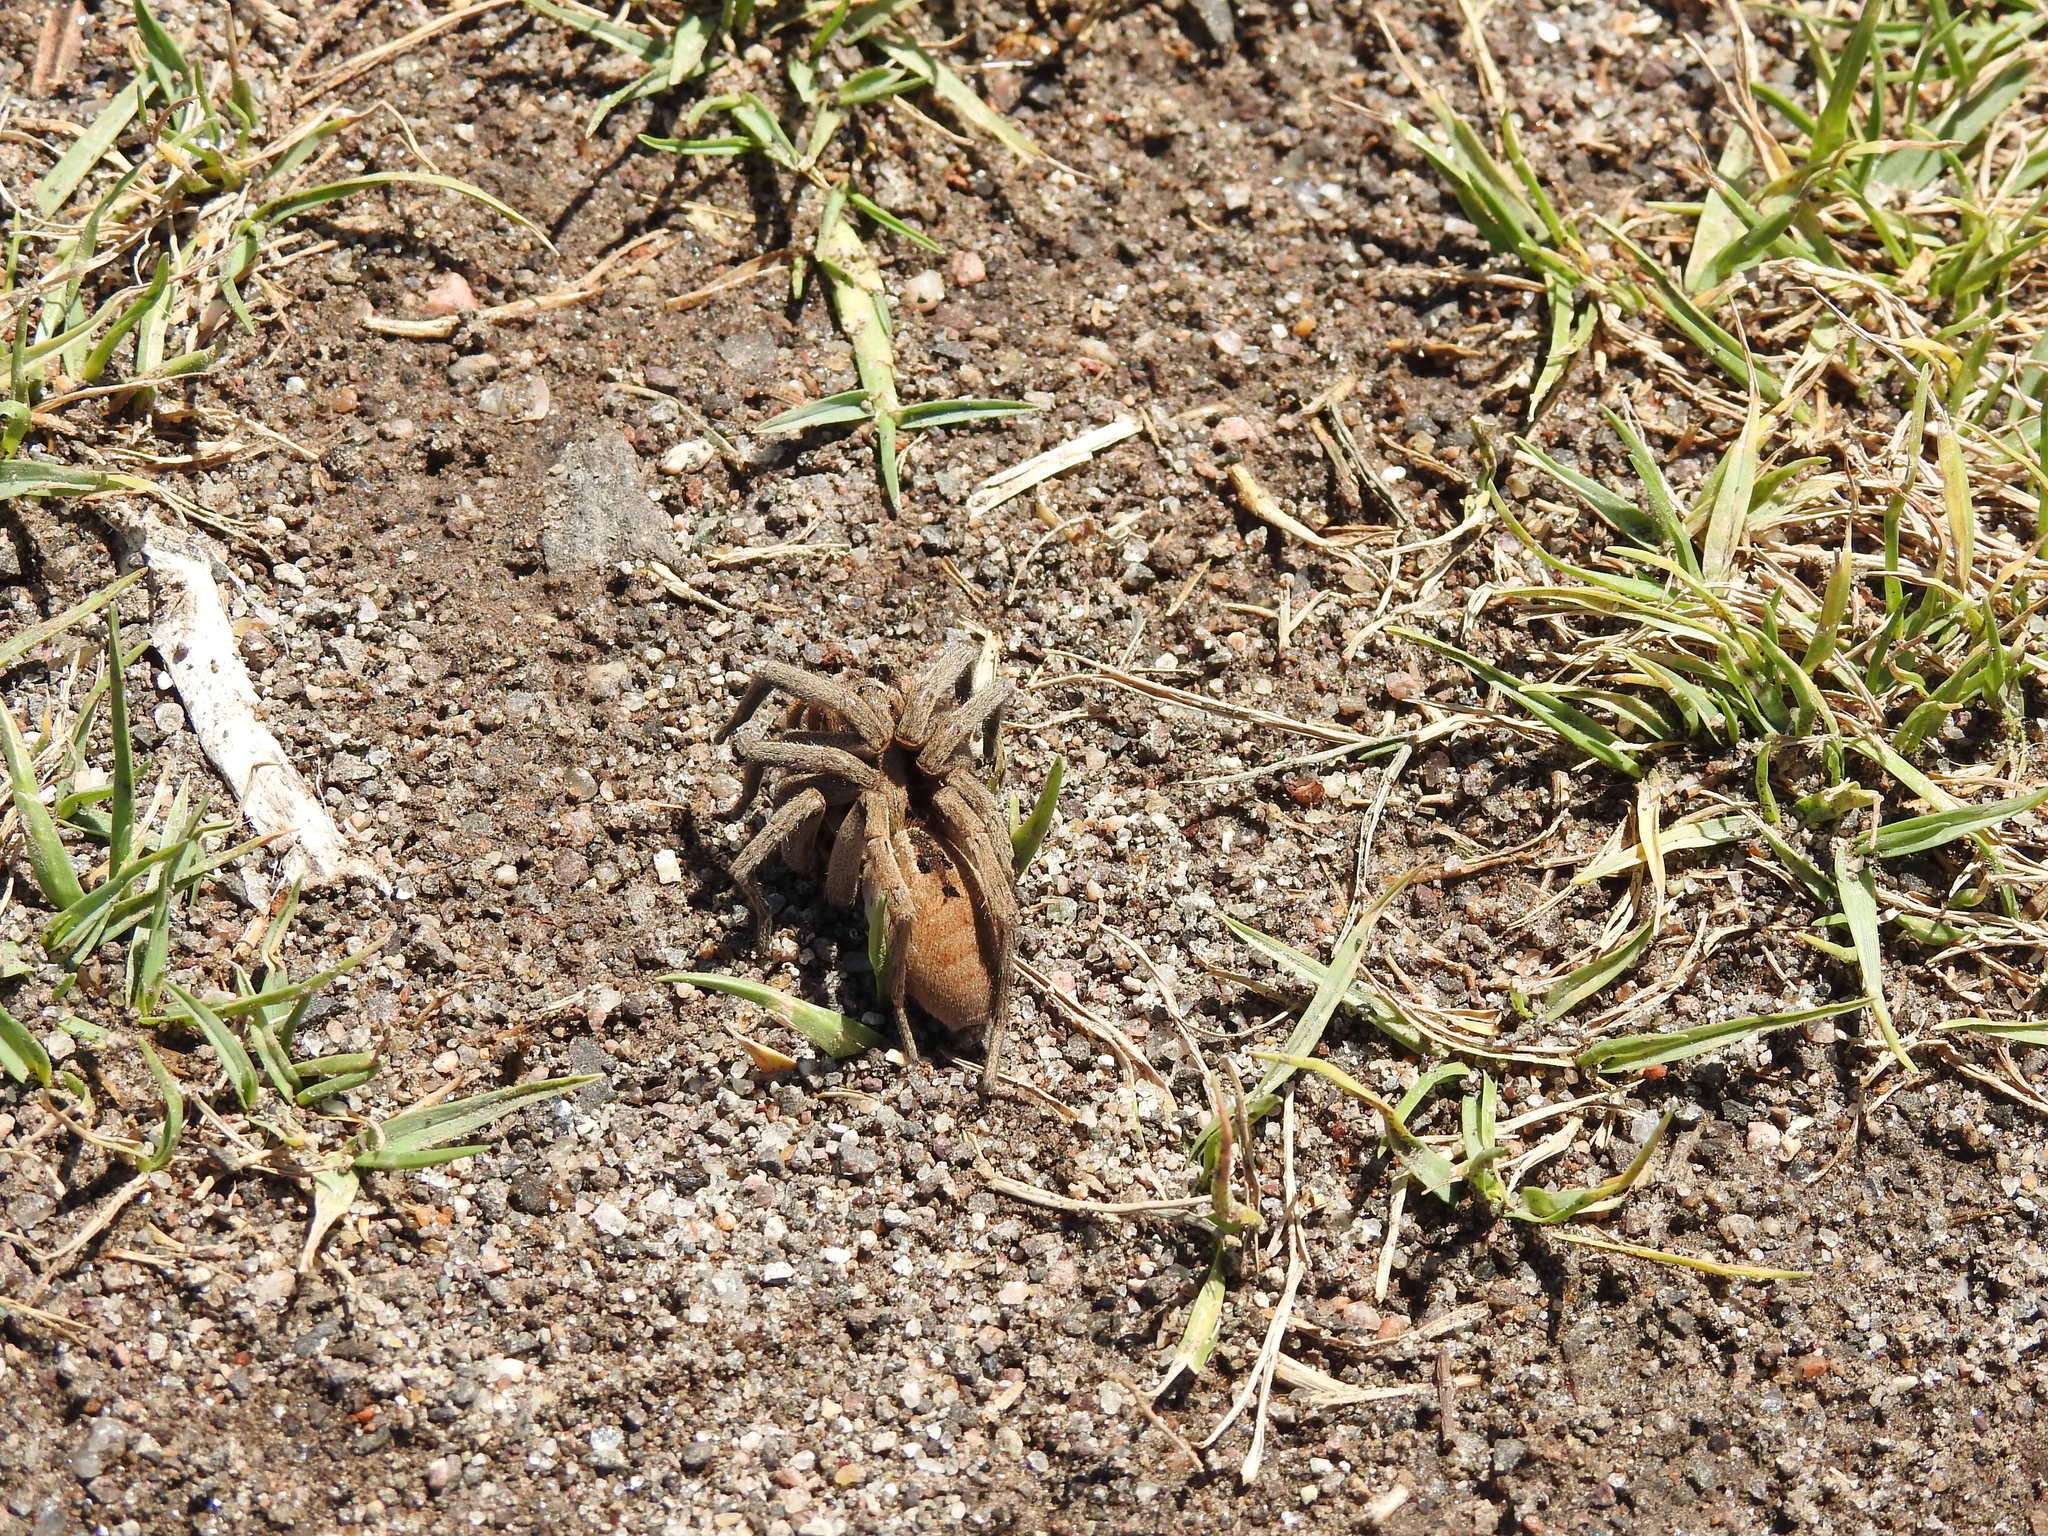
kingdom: Animalia
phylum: Arthropoda
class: Arachnida
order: Araneae
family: Lycosidae
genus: Lycosa
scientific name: Lycosa erythrognatha
